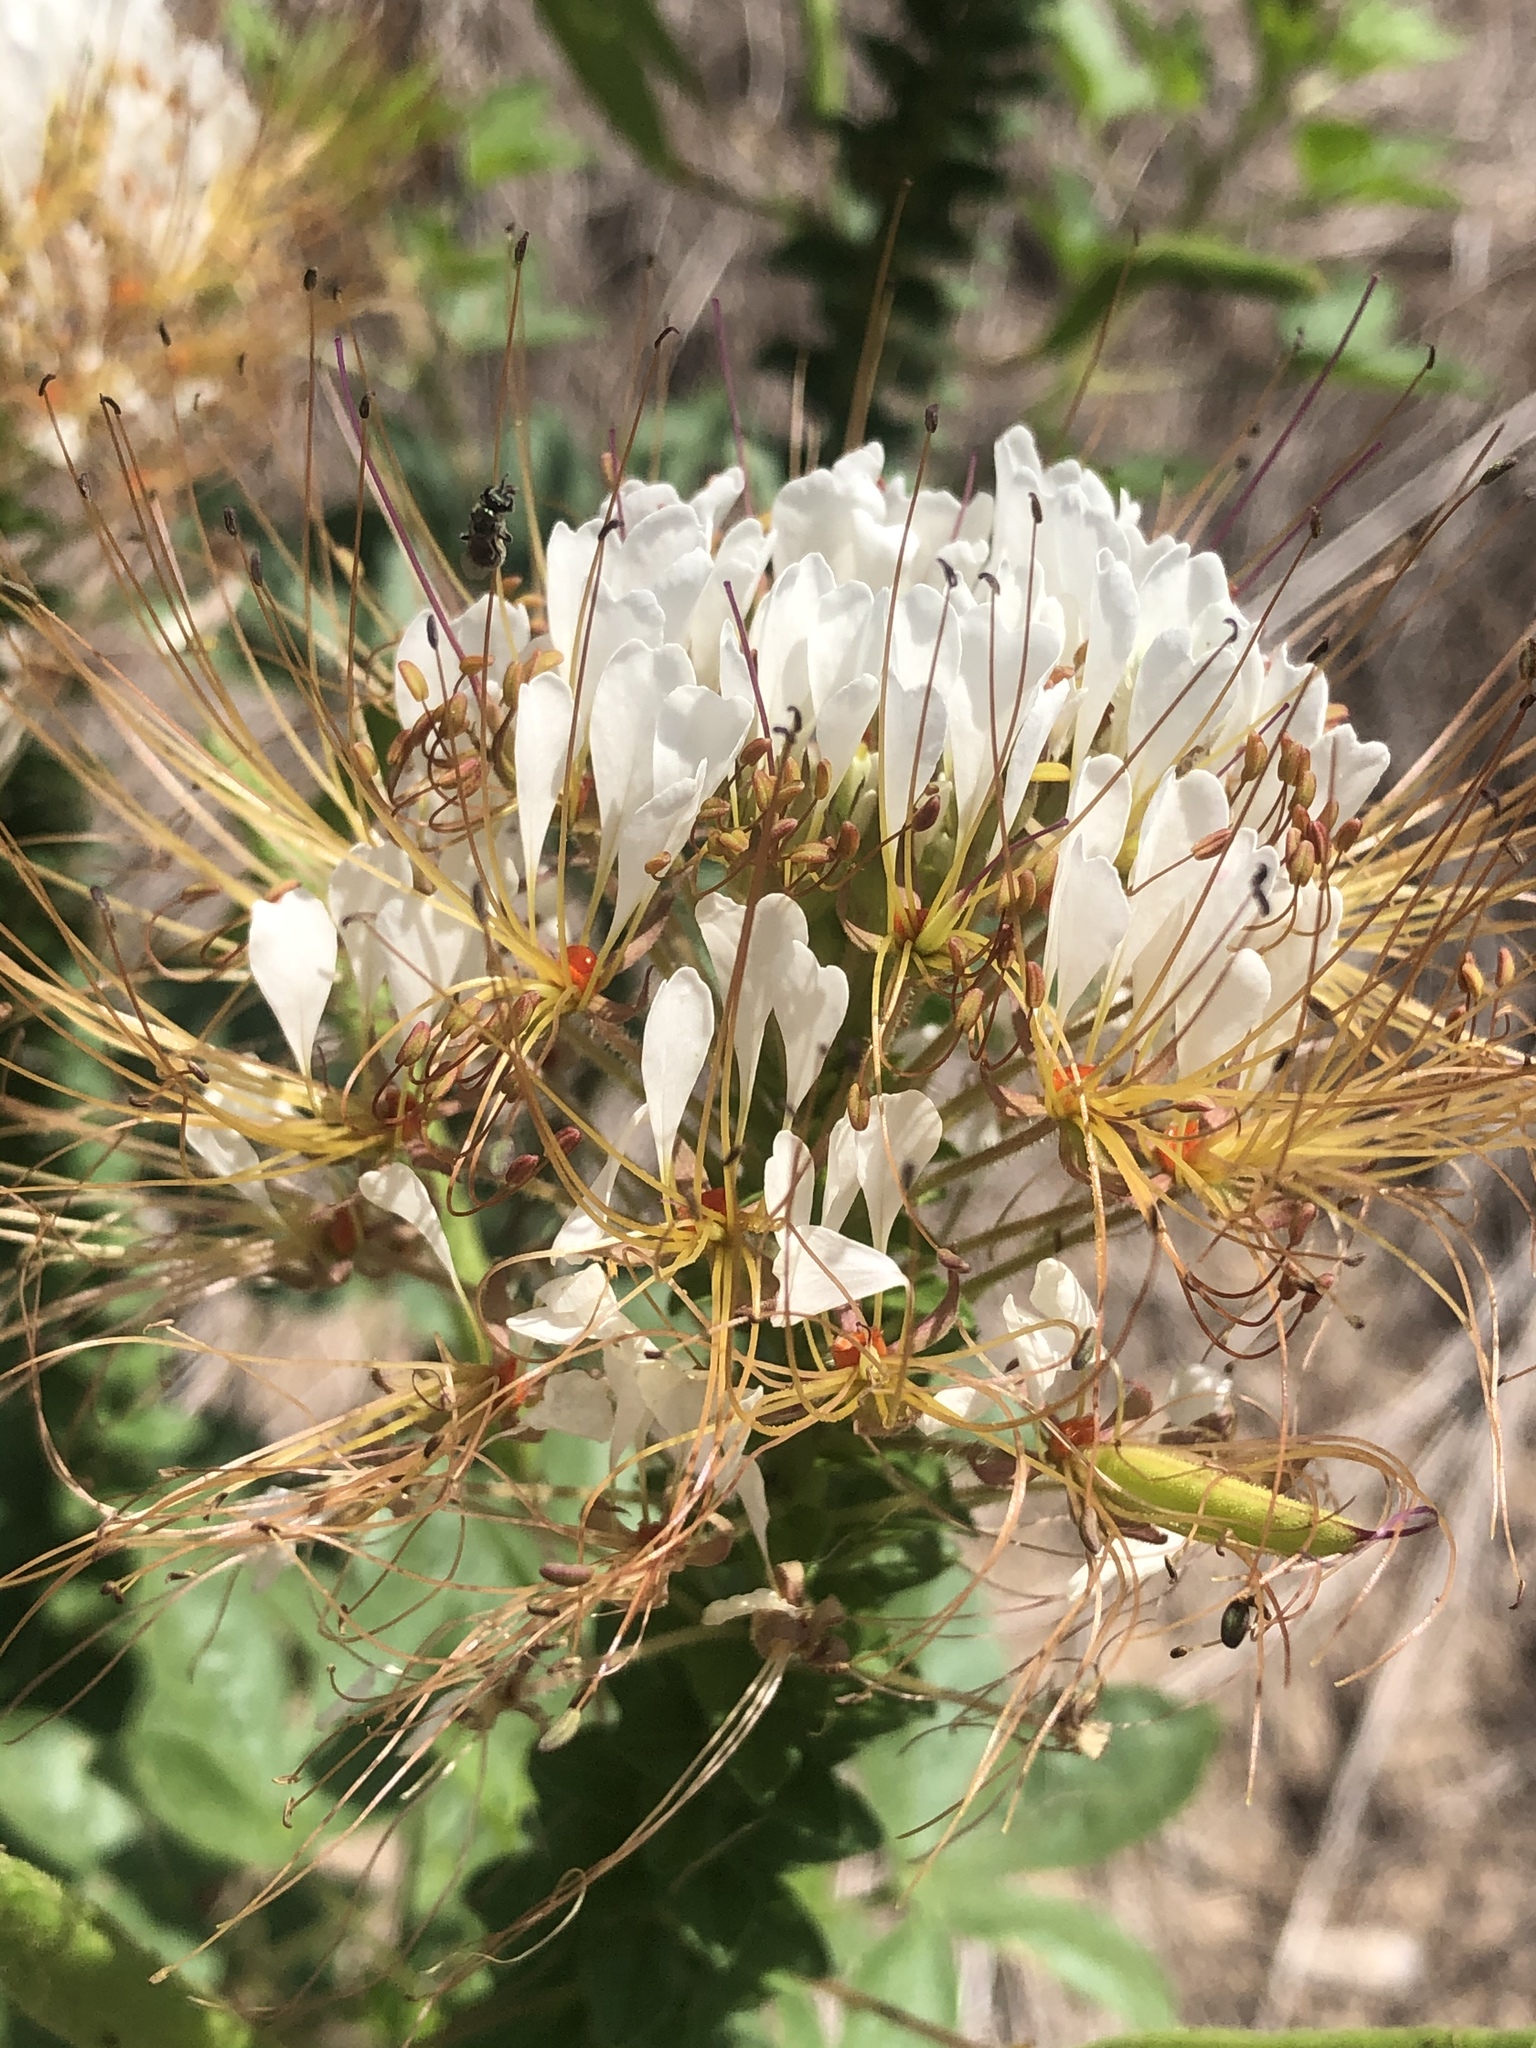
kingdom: Plantae
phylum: Tracheophyta
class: Magnoliopsida
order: Brassicales
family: Cleomaceae
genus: Polanisia
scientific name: Polanisia dodecandra
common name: Clammyweed
